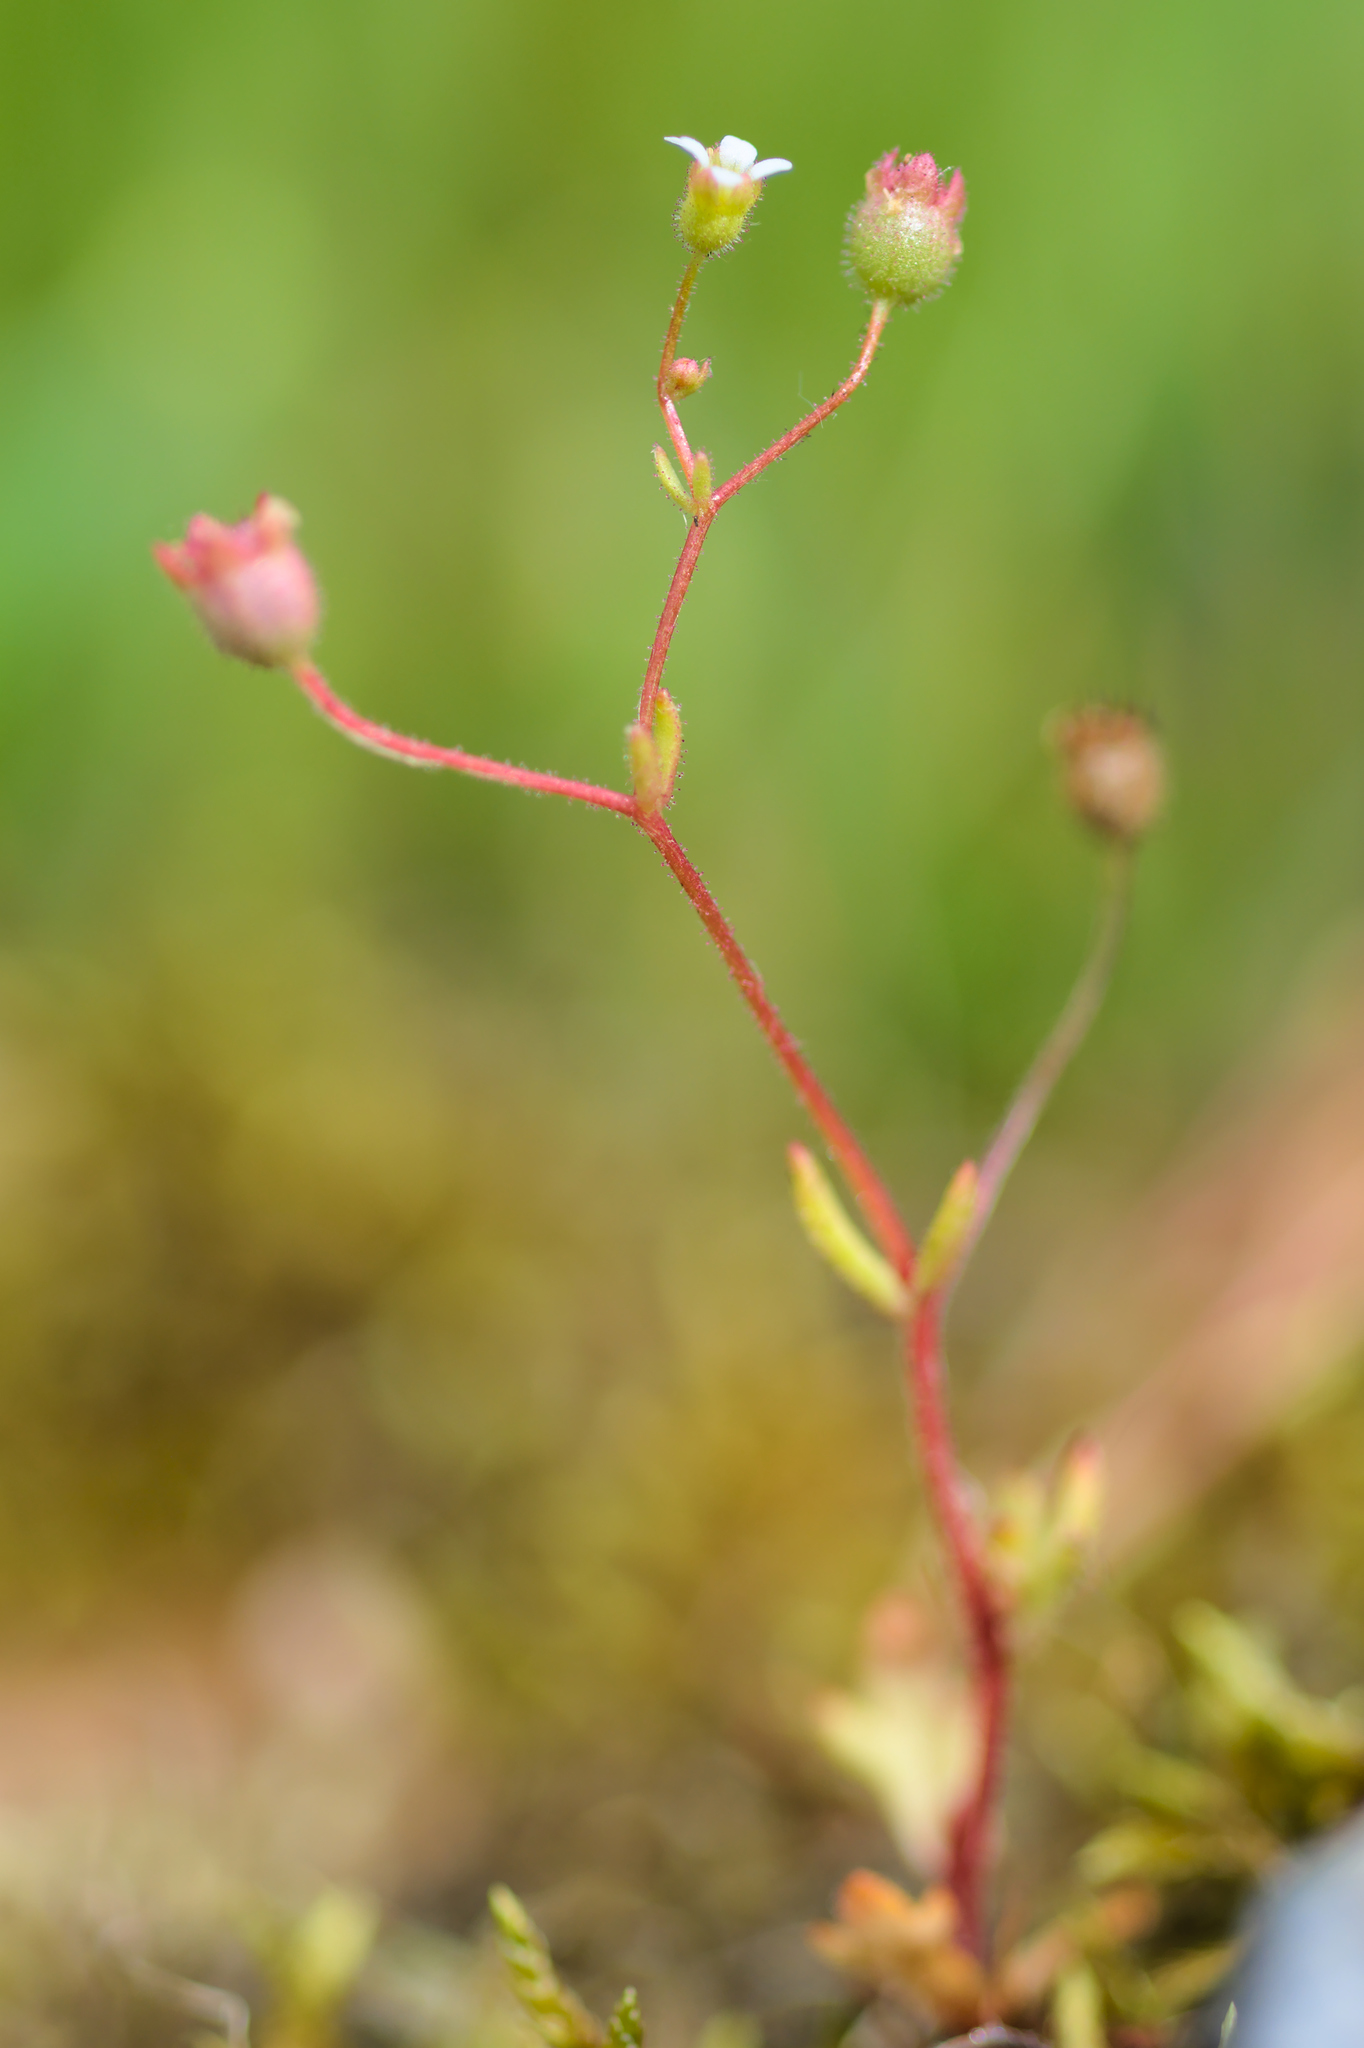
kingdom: Plantae
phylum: Tracheophyta
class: Magnoliopsida
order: Saxifragales
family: Saxifragaceae
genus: Saxifraga
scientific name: Saxifraga tridactylites
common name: Rue-leaved saxifrage
